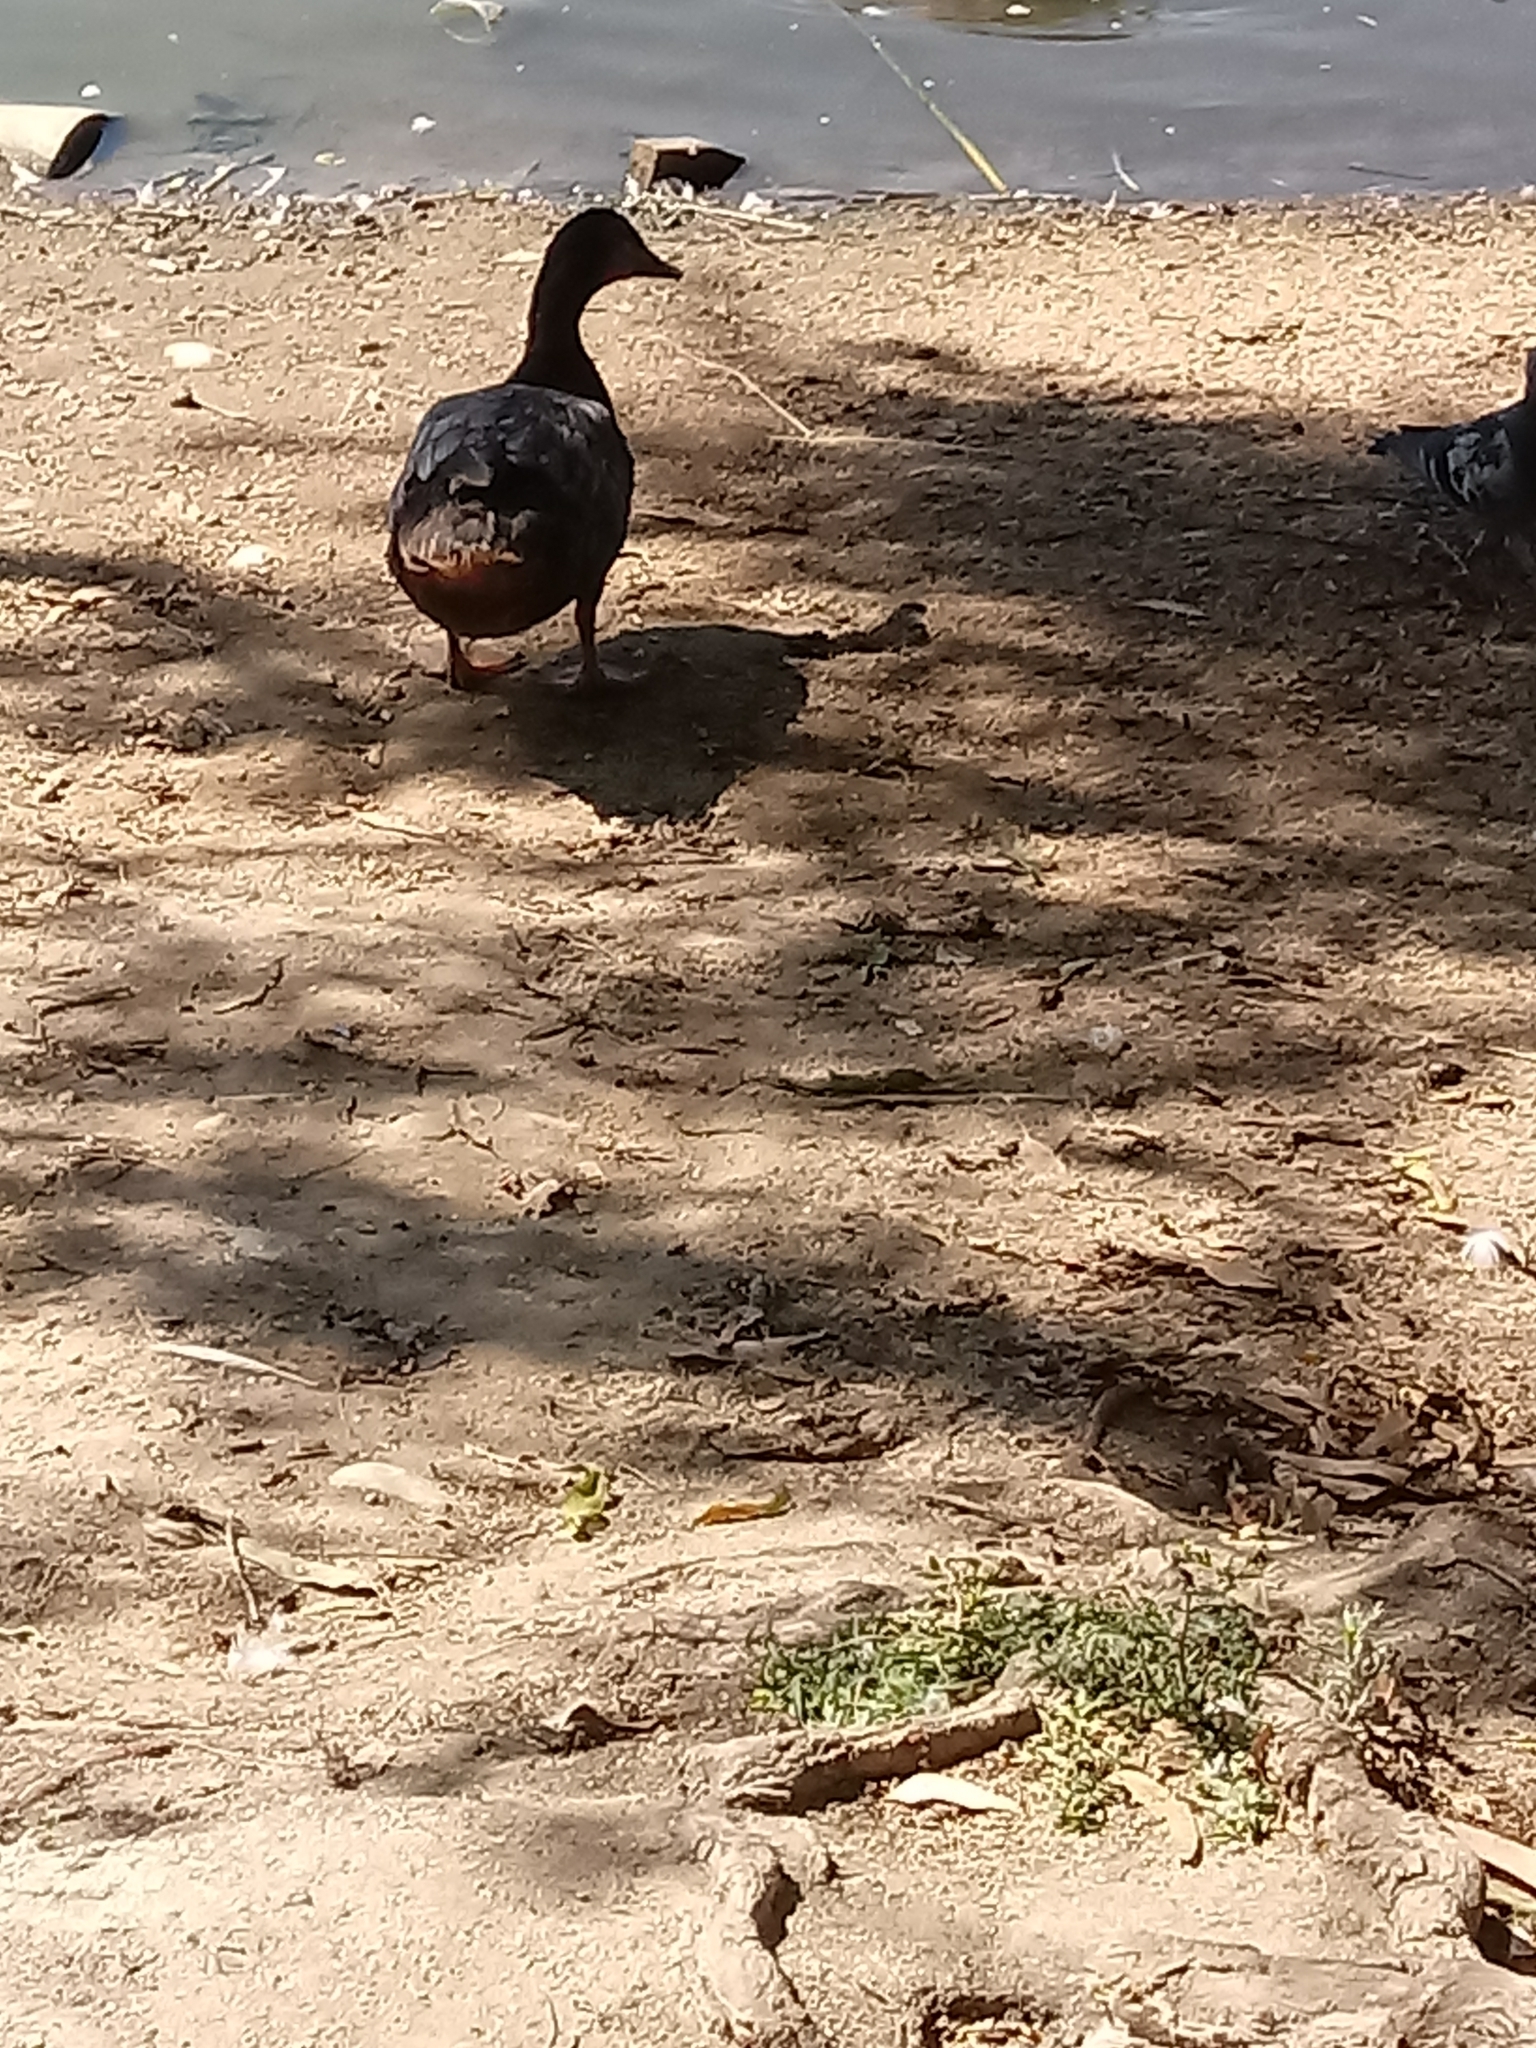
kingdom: Animalia
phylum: Chordata
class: Aves
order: Anseriformes
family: Anatidae
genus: Anas
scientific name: Anas platyrhynchos
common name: Mallard
